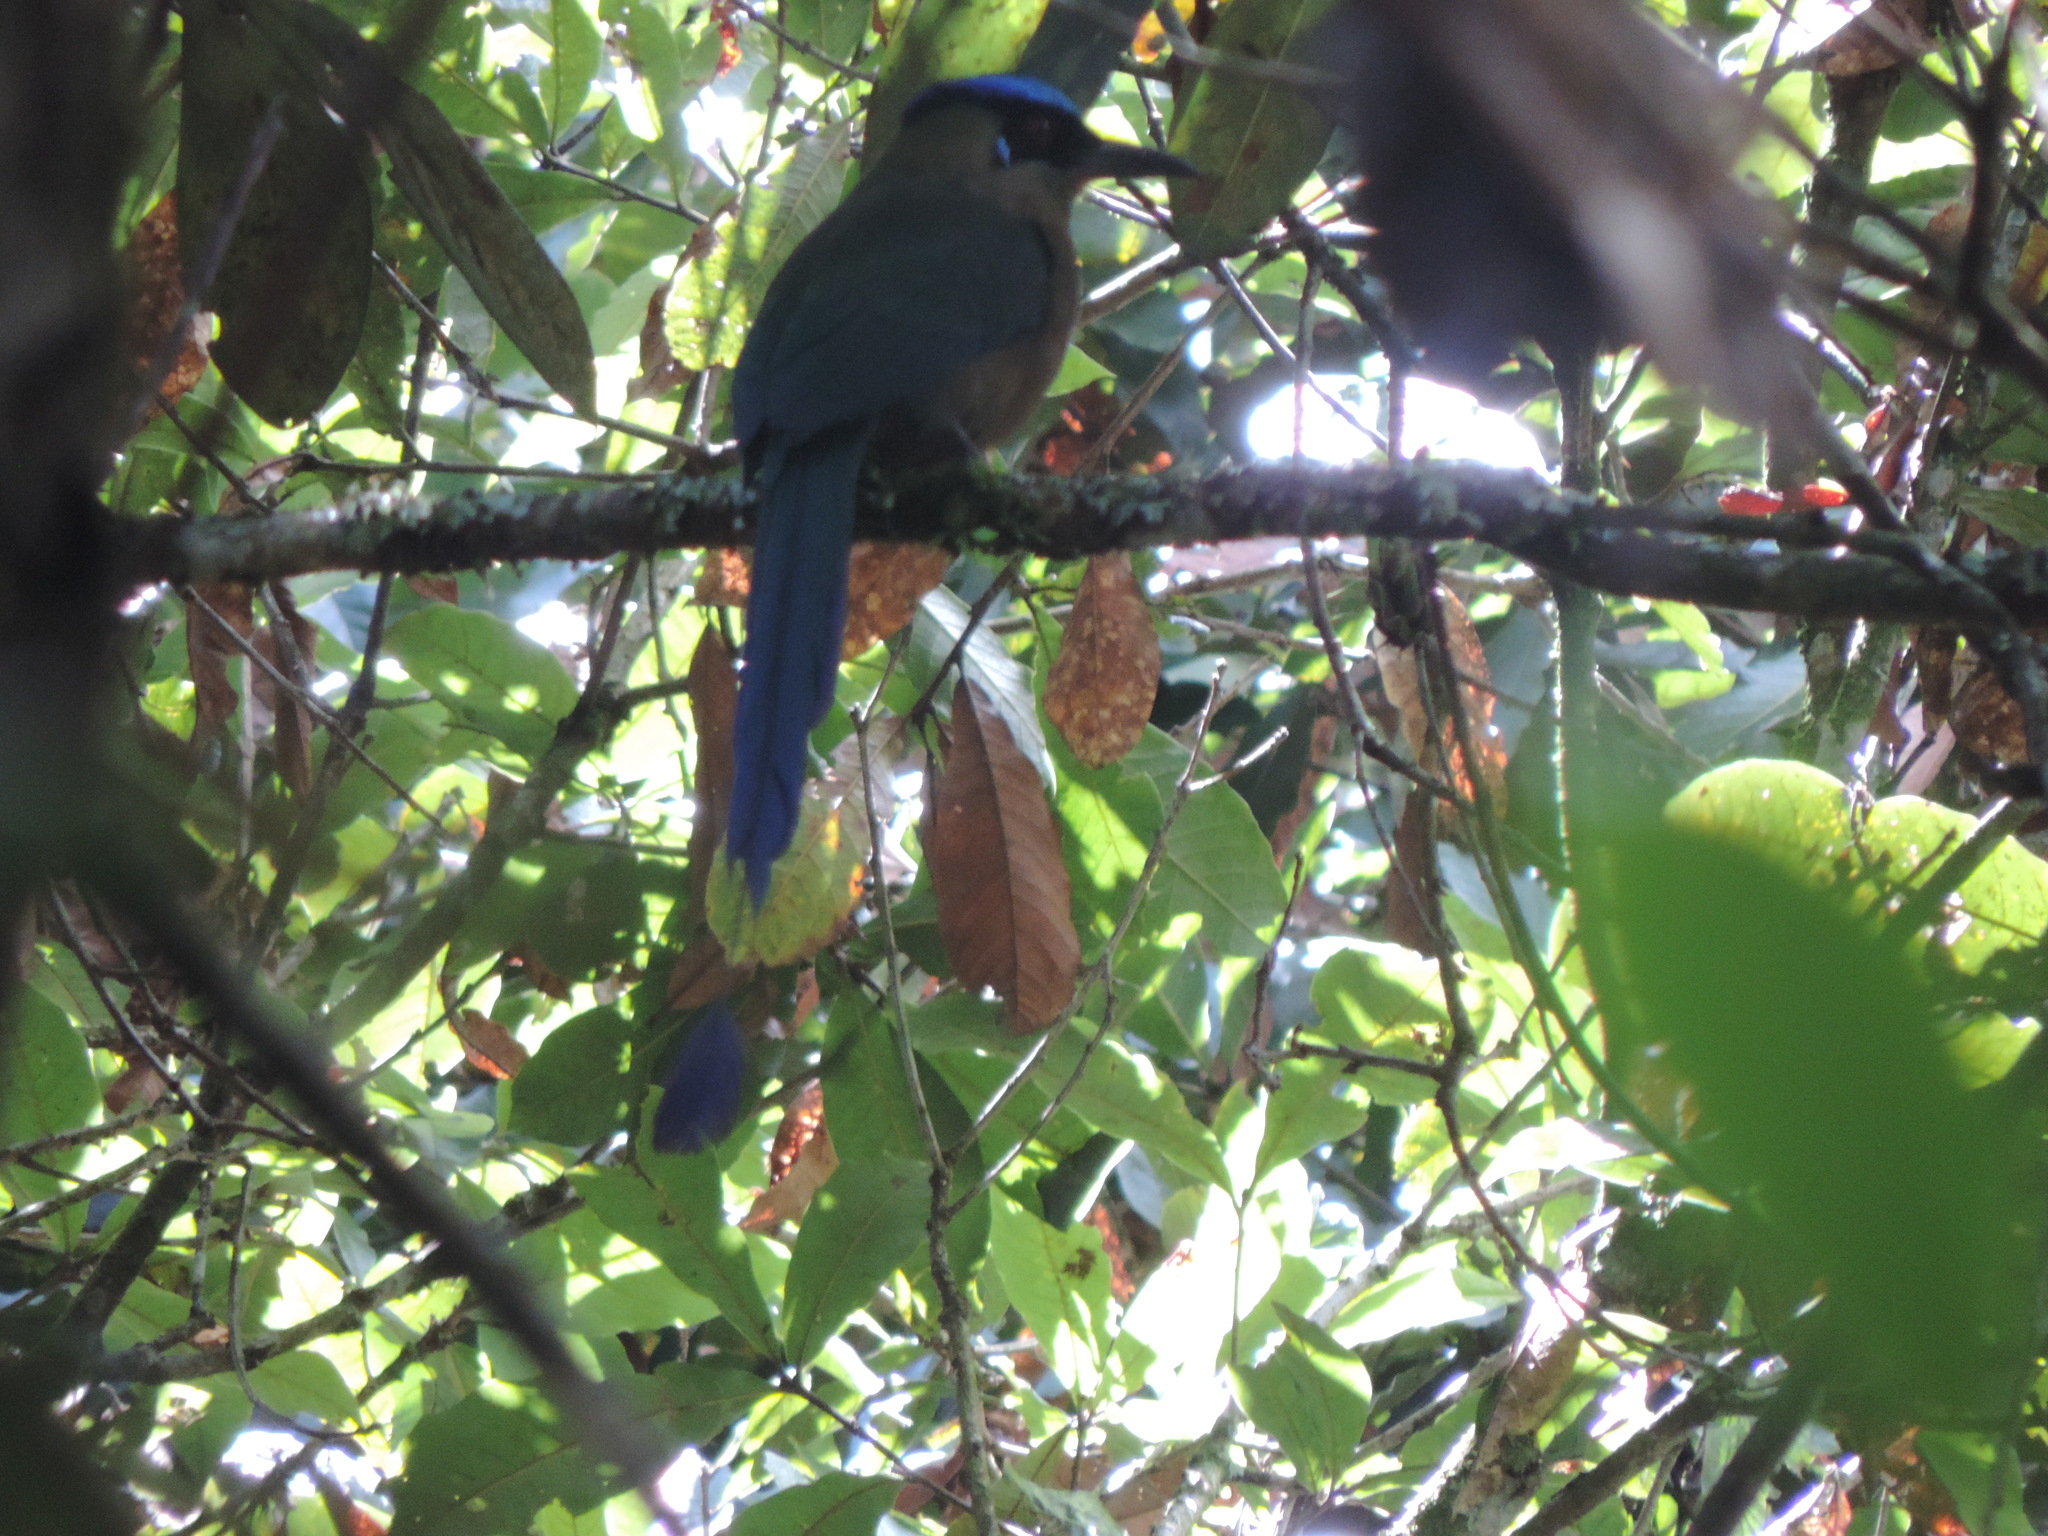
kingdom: Animalia
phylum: Chordata
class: Aves
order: Coraciiformes
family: Momotidae
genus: Momotus
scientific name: Momotus aequatorialis
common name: Andean motmot
